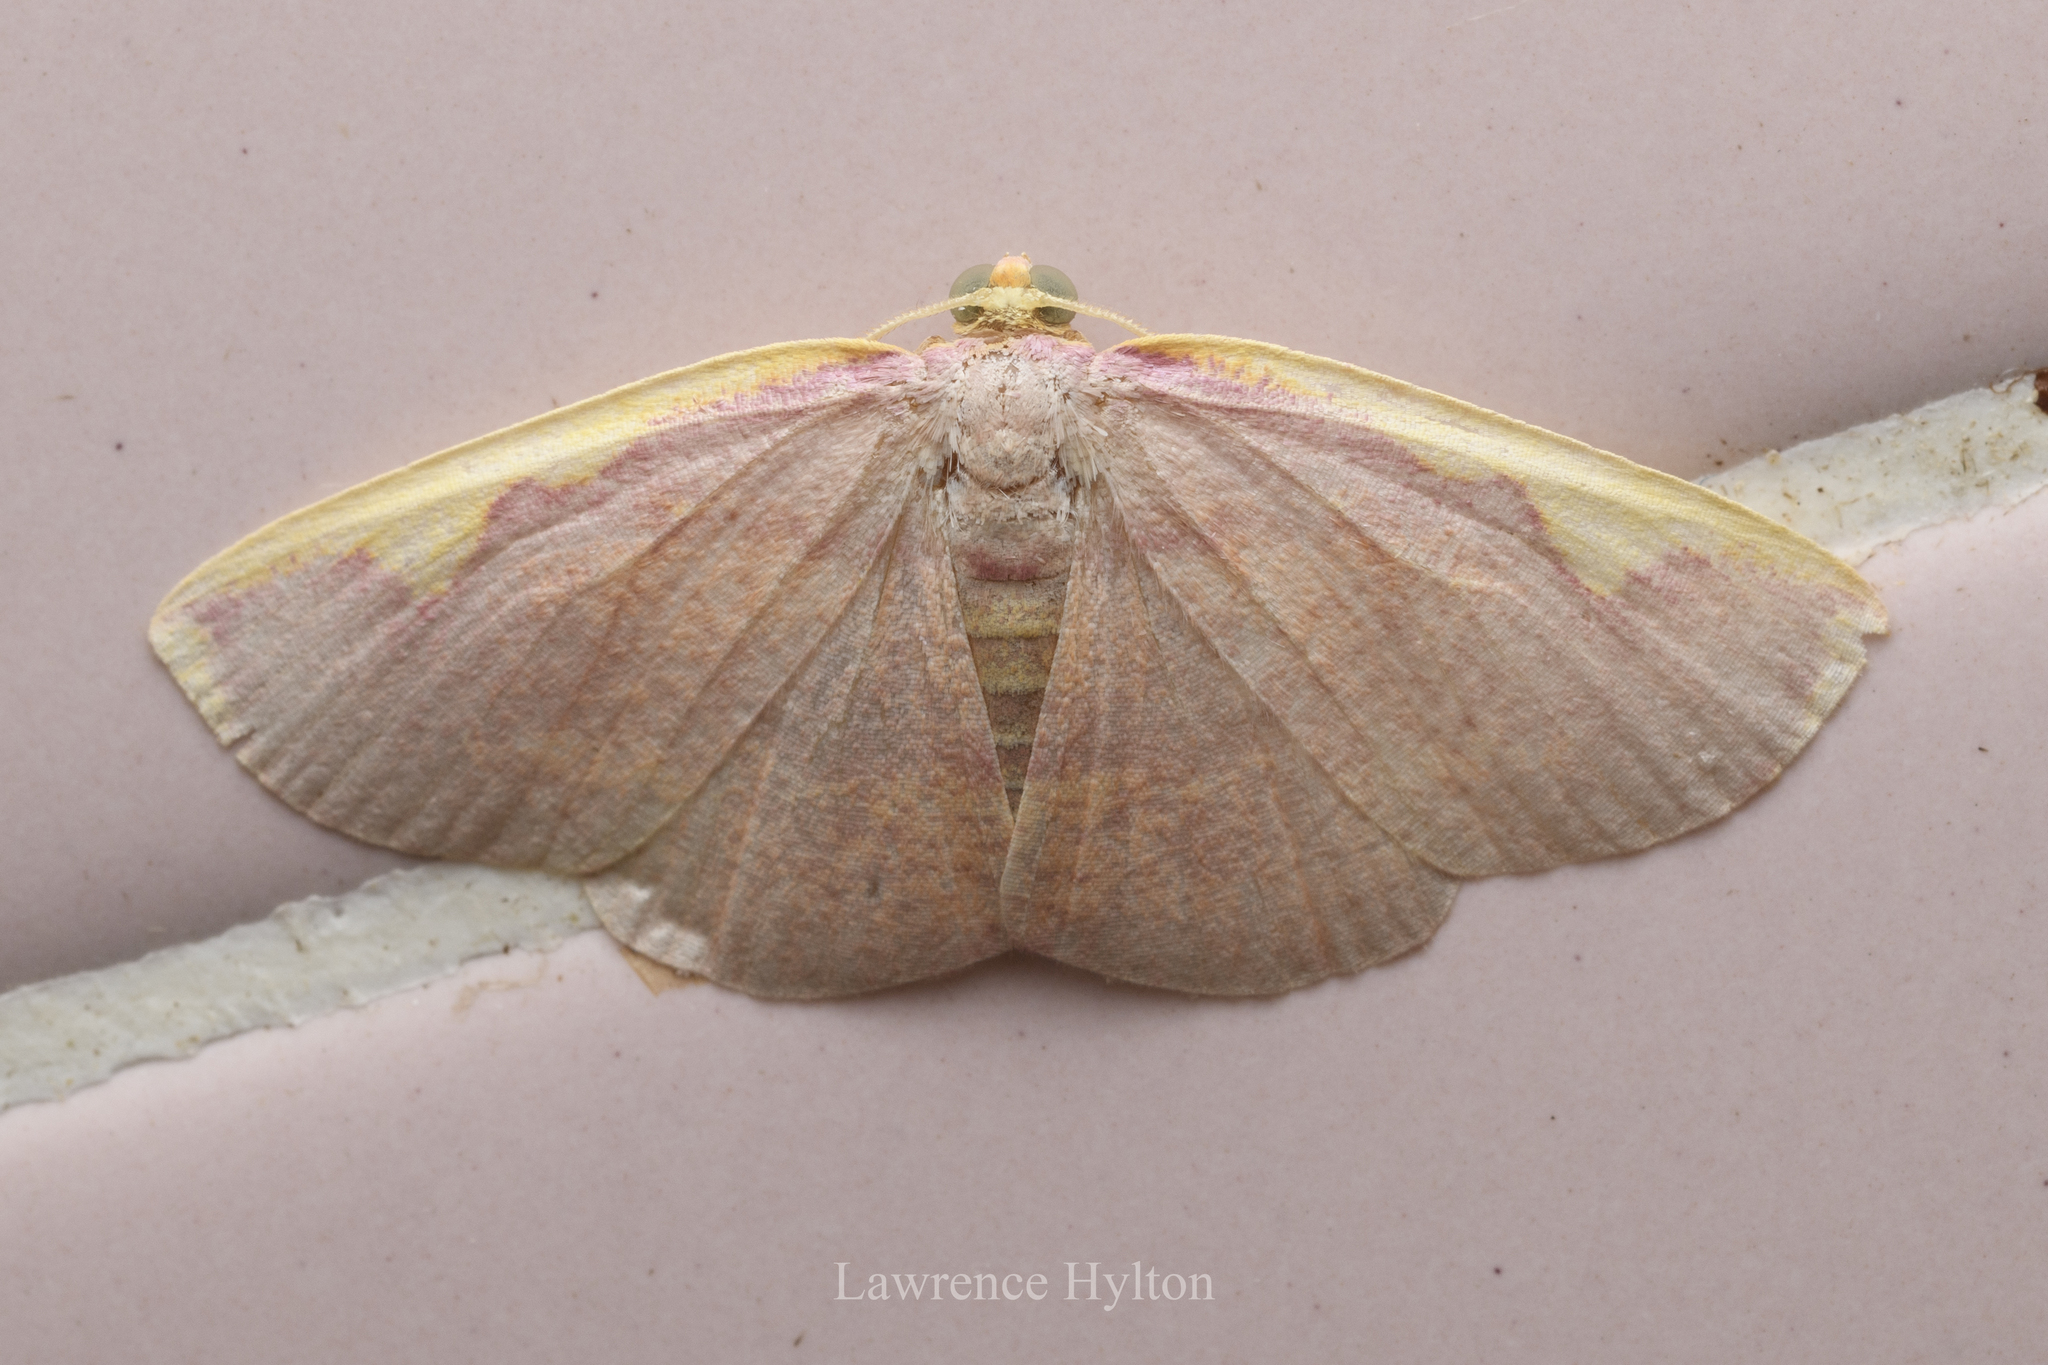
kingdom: Animalia
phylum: Arthropoda
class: Insecta
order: Lepidoptera
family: Geometridae
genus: Nothomiza
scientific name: Nothomiza flavicosta
